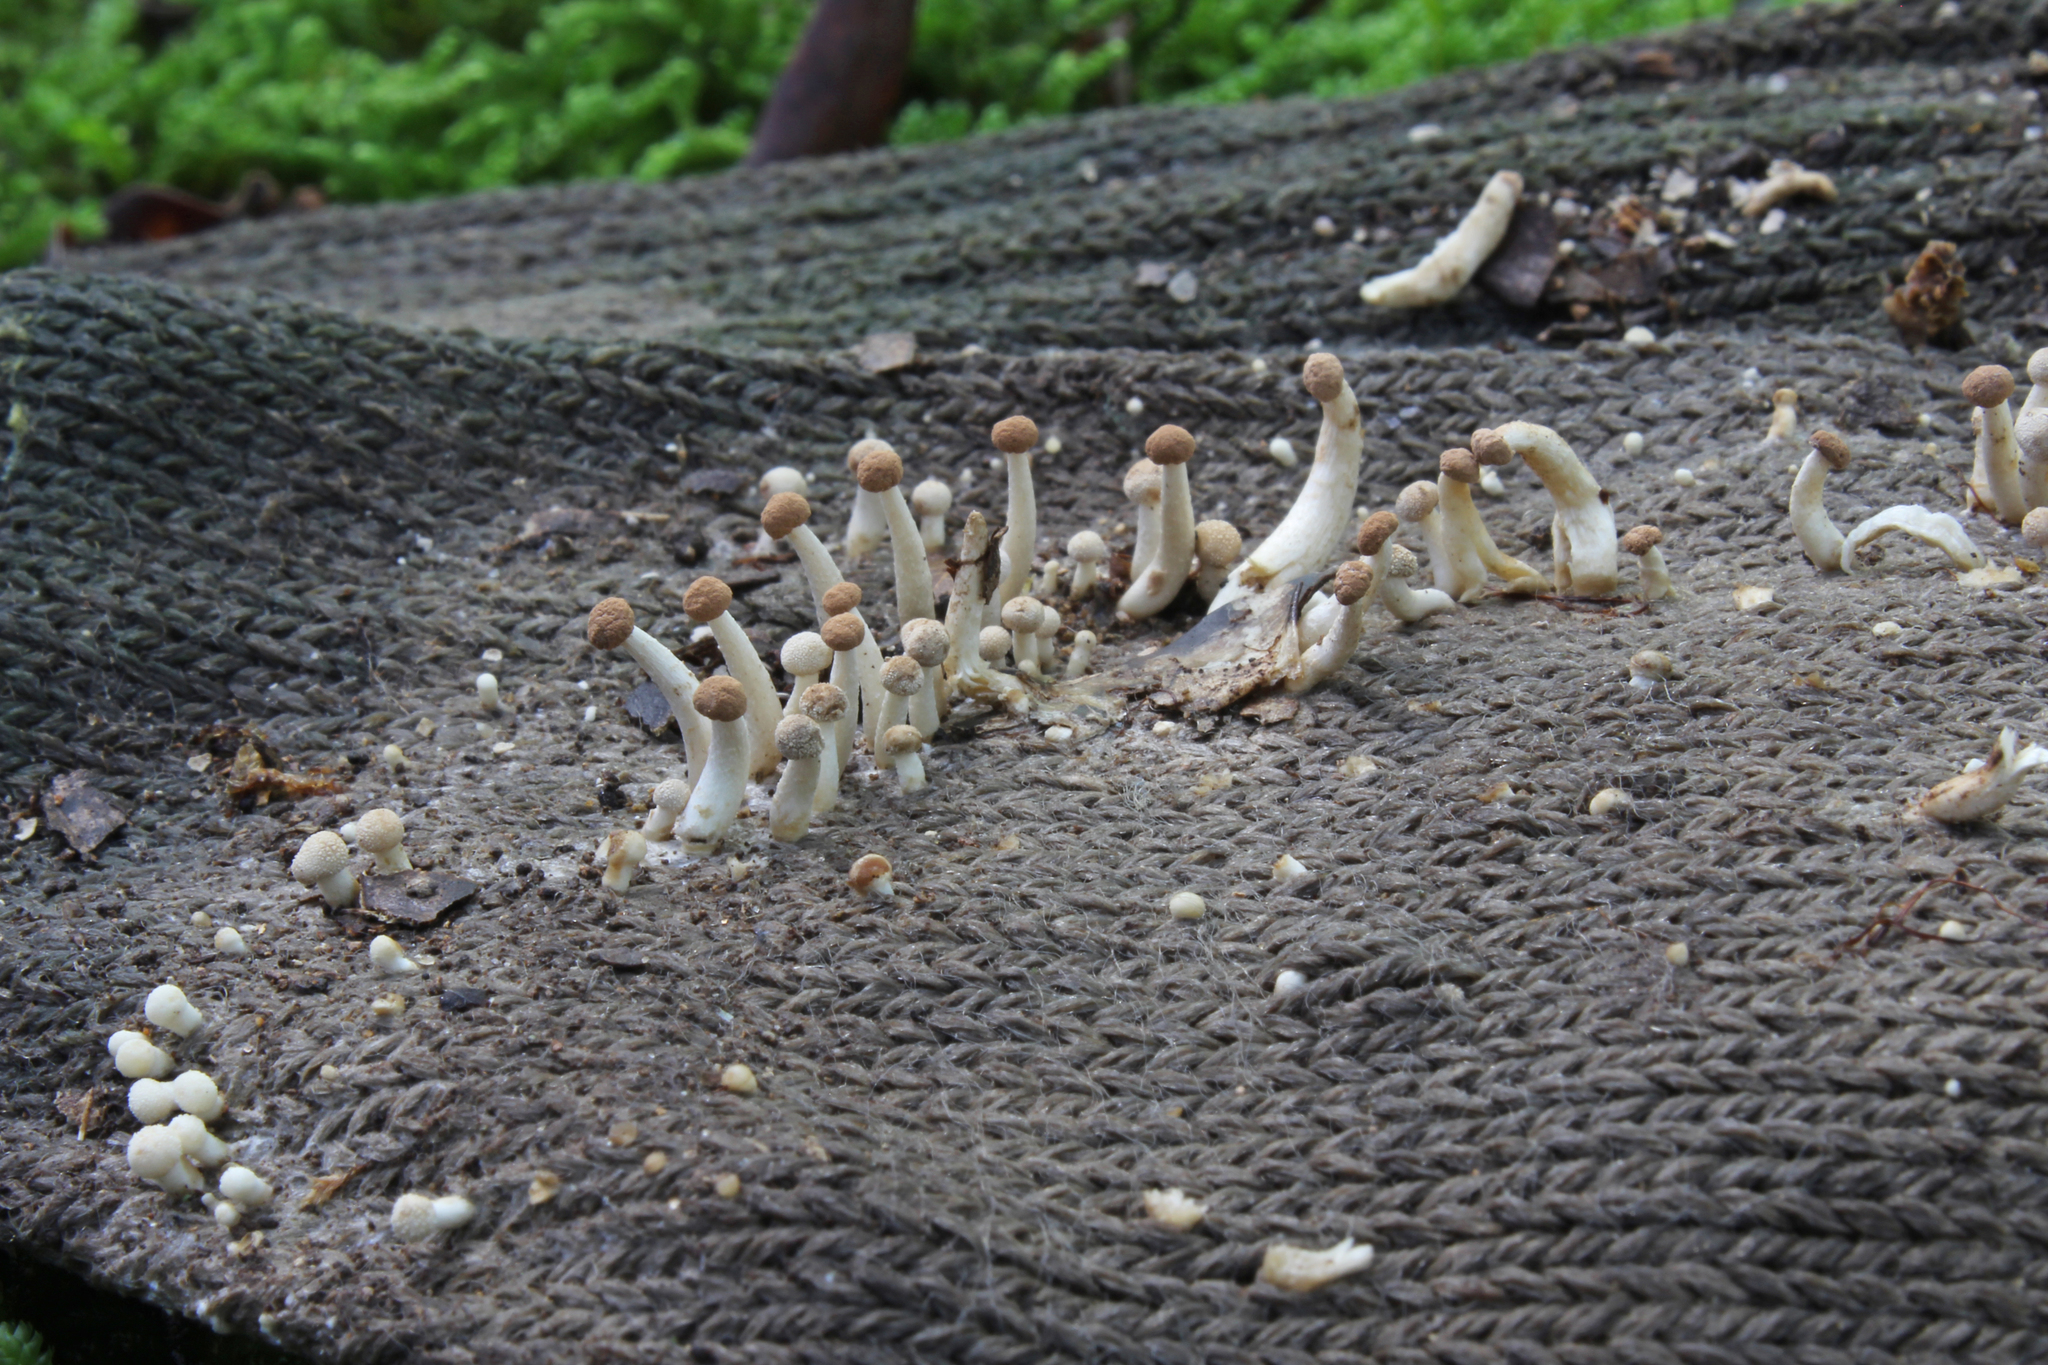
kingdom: Fungi
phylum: Ascomycota
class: Eurotiomycetes
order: Onygenales
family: Onygenaceae
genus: Onygena
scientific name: Onygena corvina
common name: Feather stalkball
